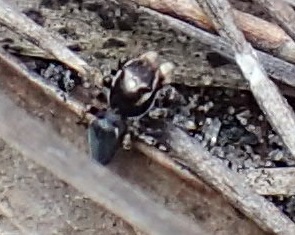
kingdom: Animalia
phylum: Arthropoda
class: Arachnida
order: Araneae
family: Salticidae
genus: Maratus
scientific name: Maratus proszynskii
